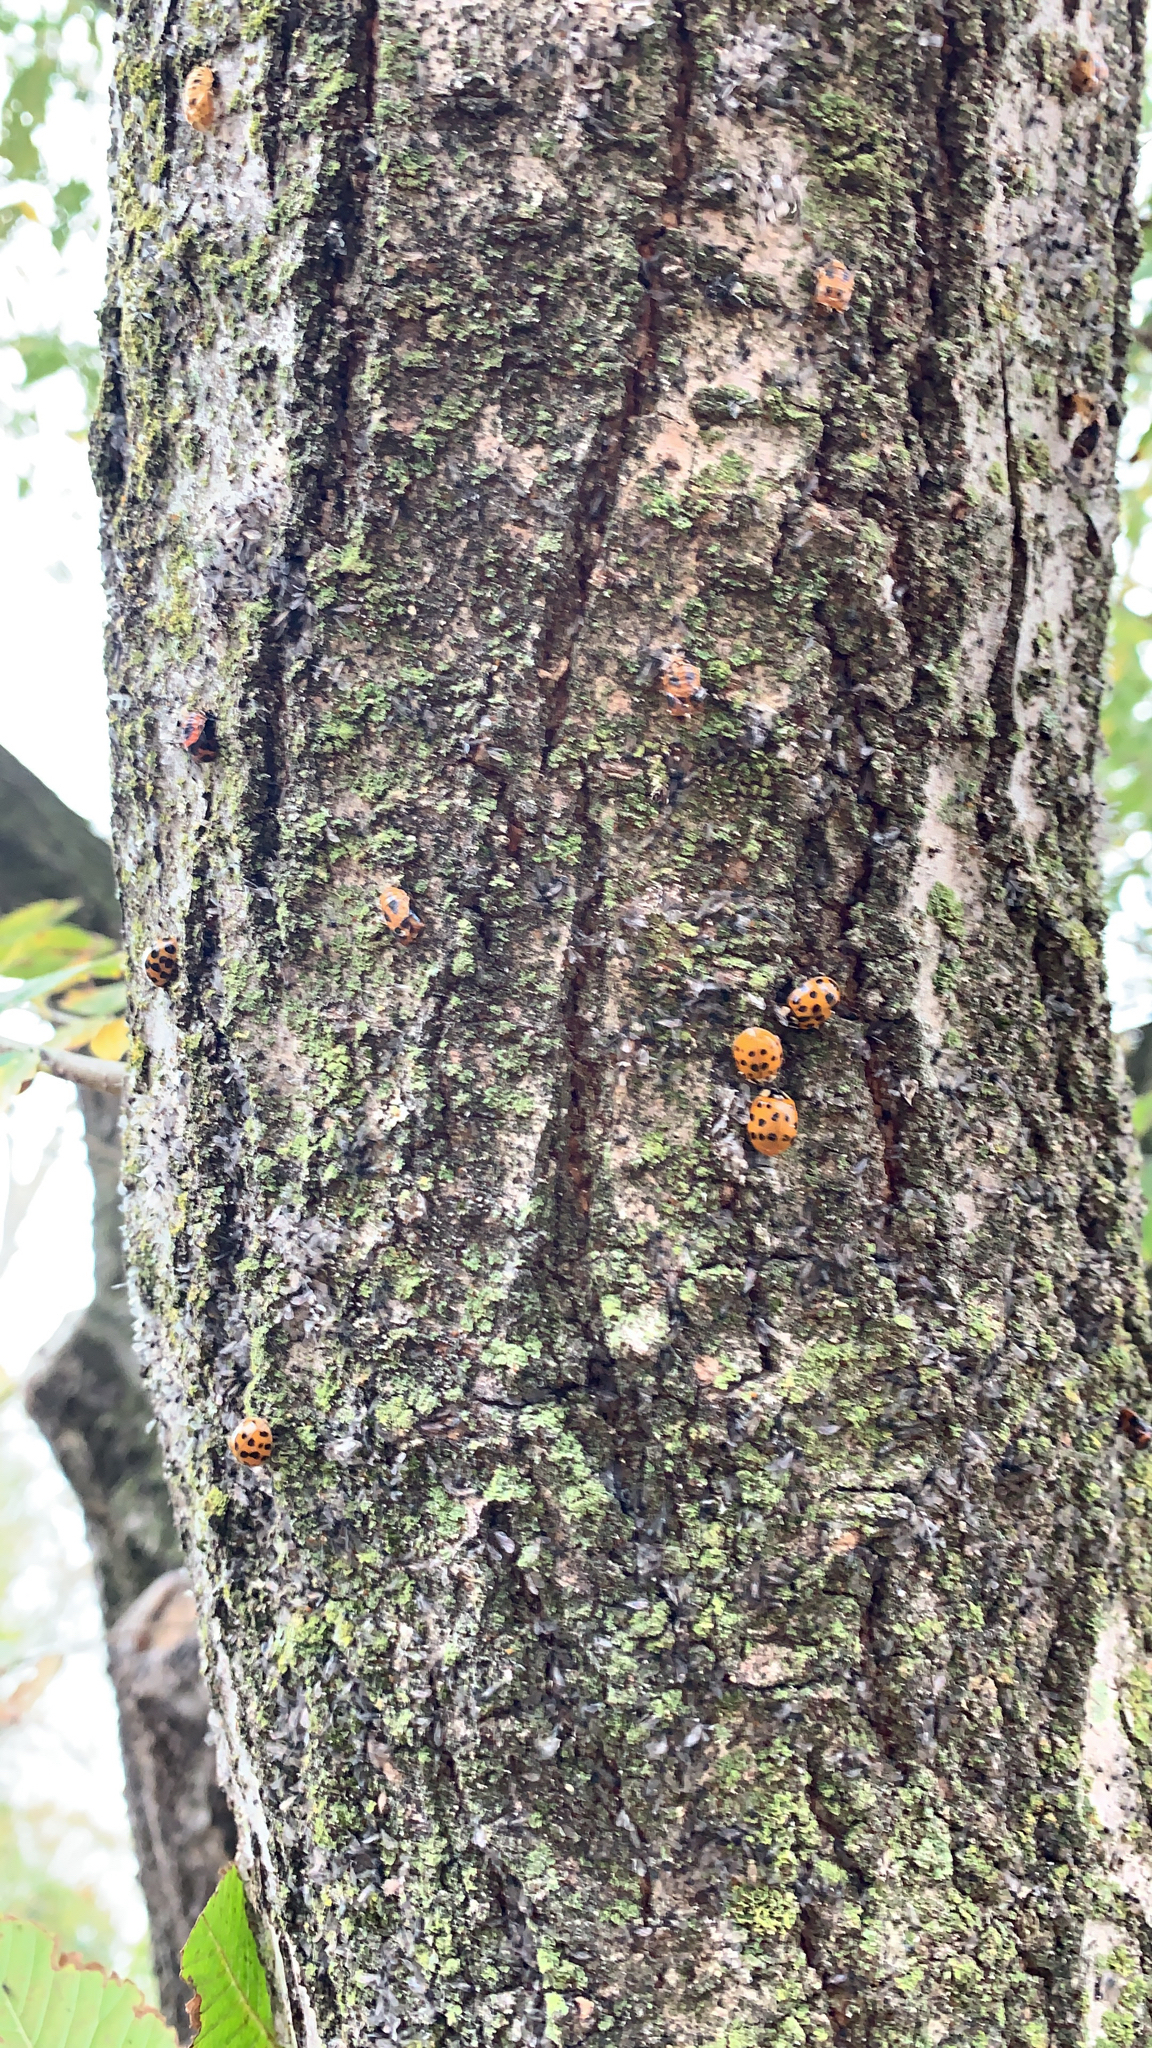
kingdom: Animalia
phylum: Arthropoda
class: Insecta
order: Coleoptera
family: Coccinellidae
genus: Harmonia
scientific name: Harmonia axyridis
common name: Harlequin ladybird
